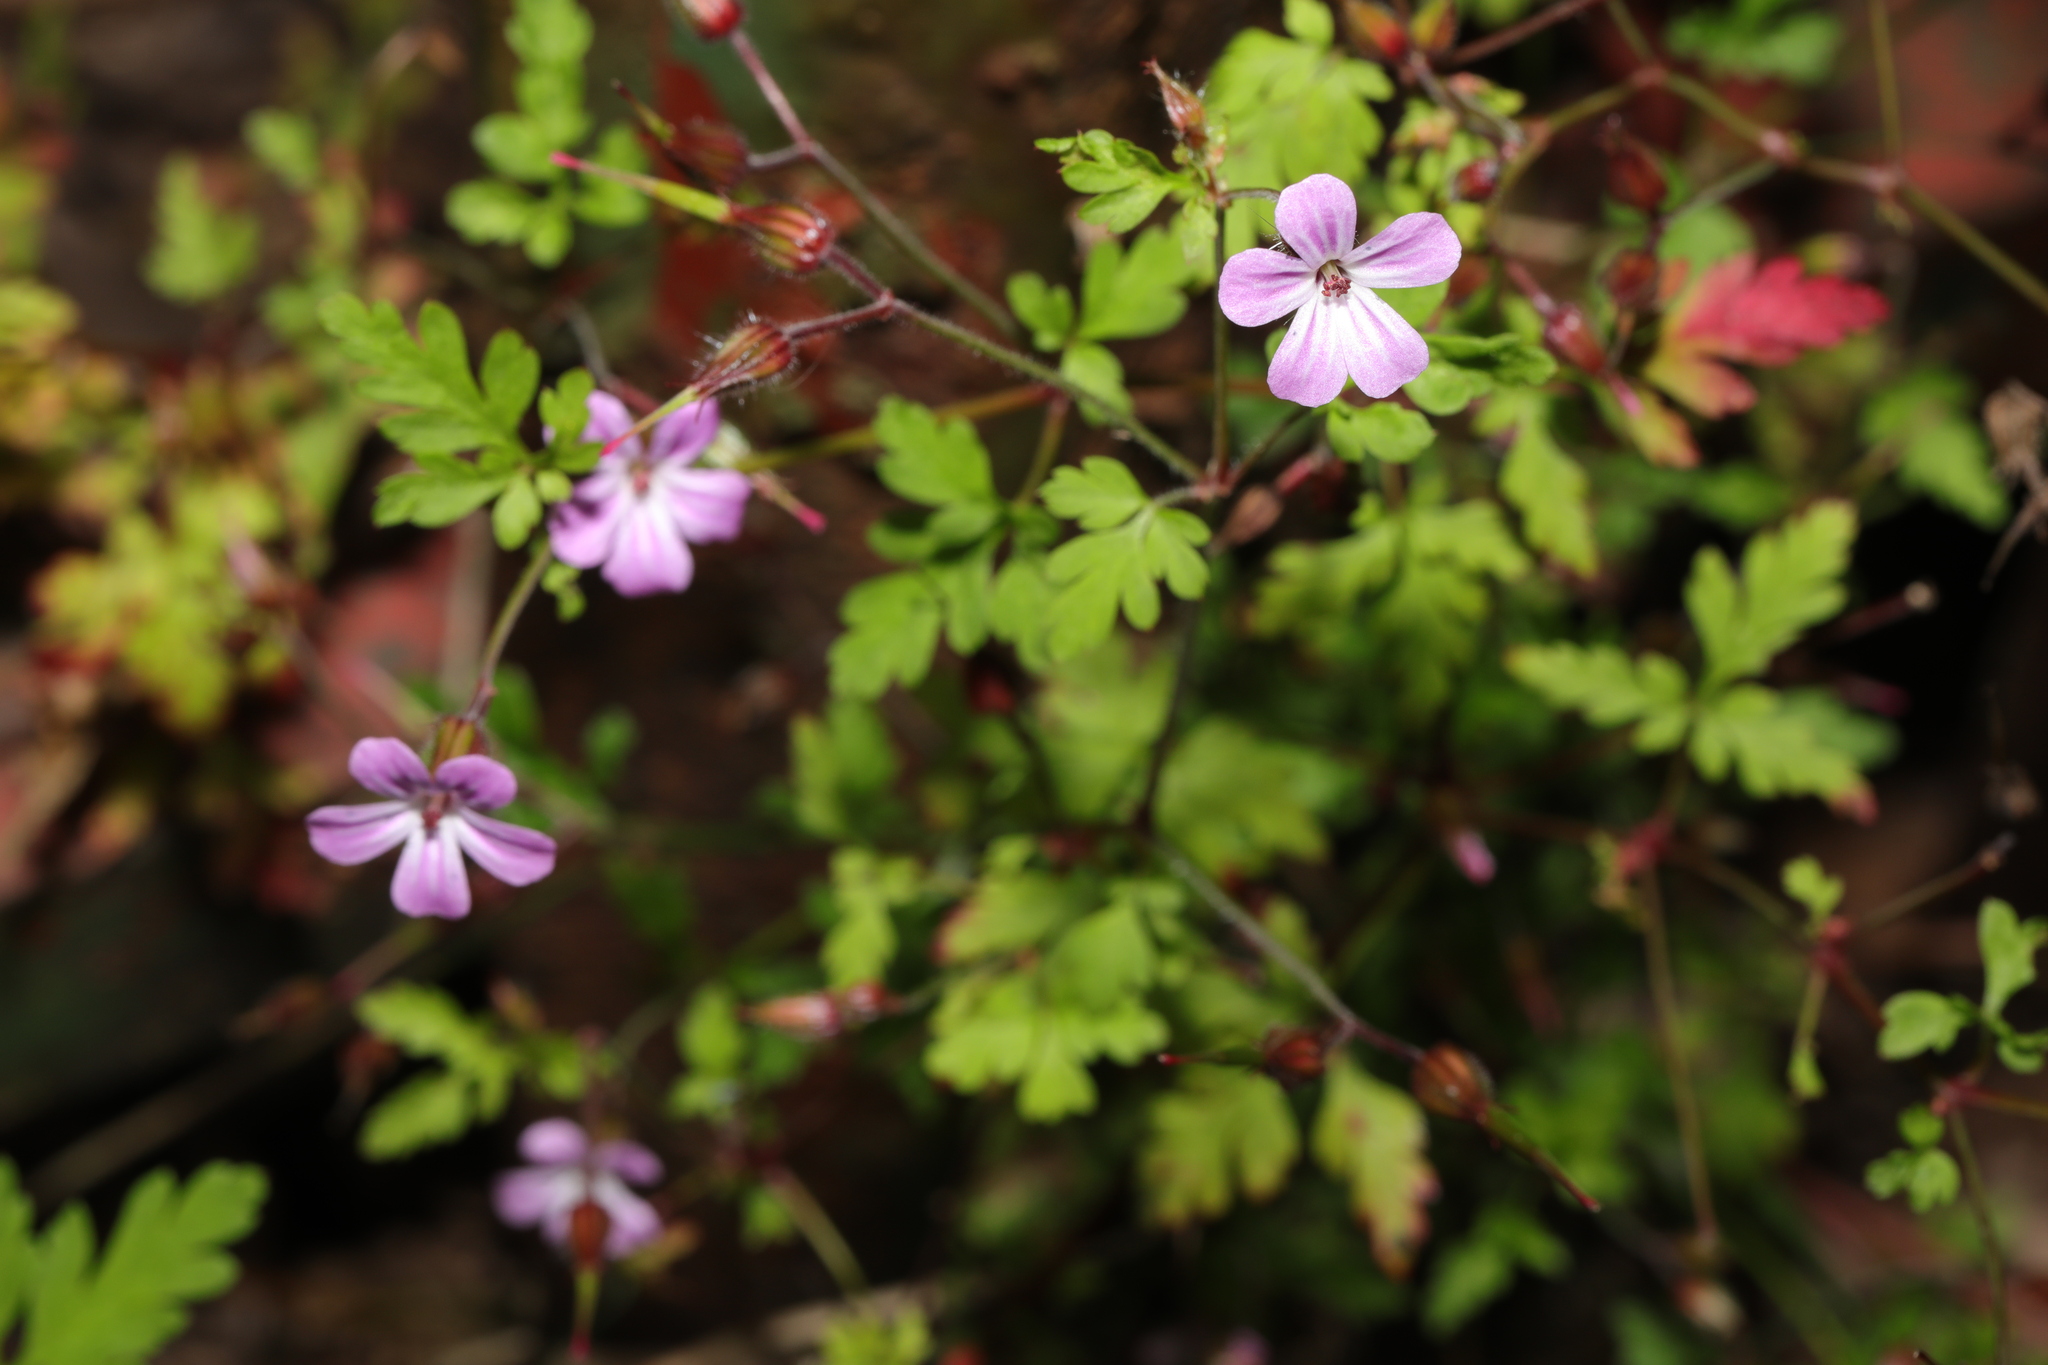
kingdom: Plantae
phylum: Tracheophyta
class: Magnoliopsida
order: Geraniales
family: Geraniaceae
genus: Geranium
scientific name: Geranium robertianum
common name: Herb-robert
